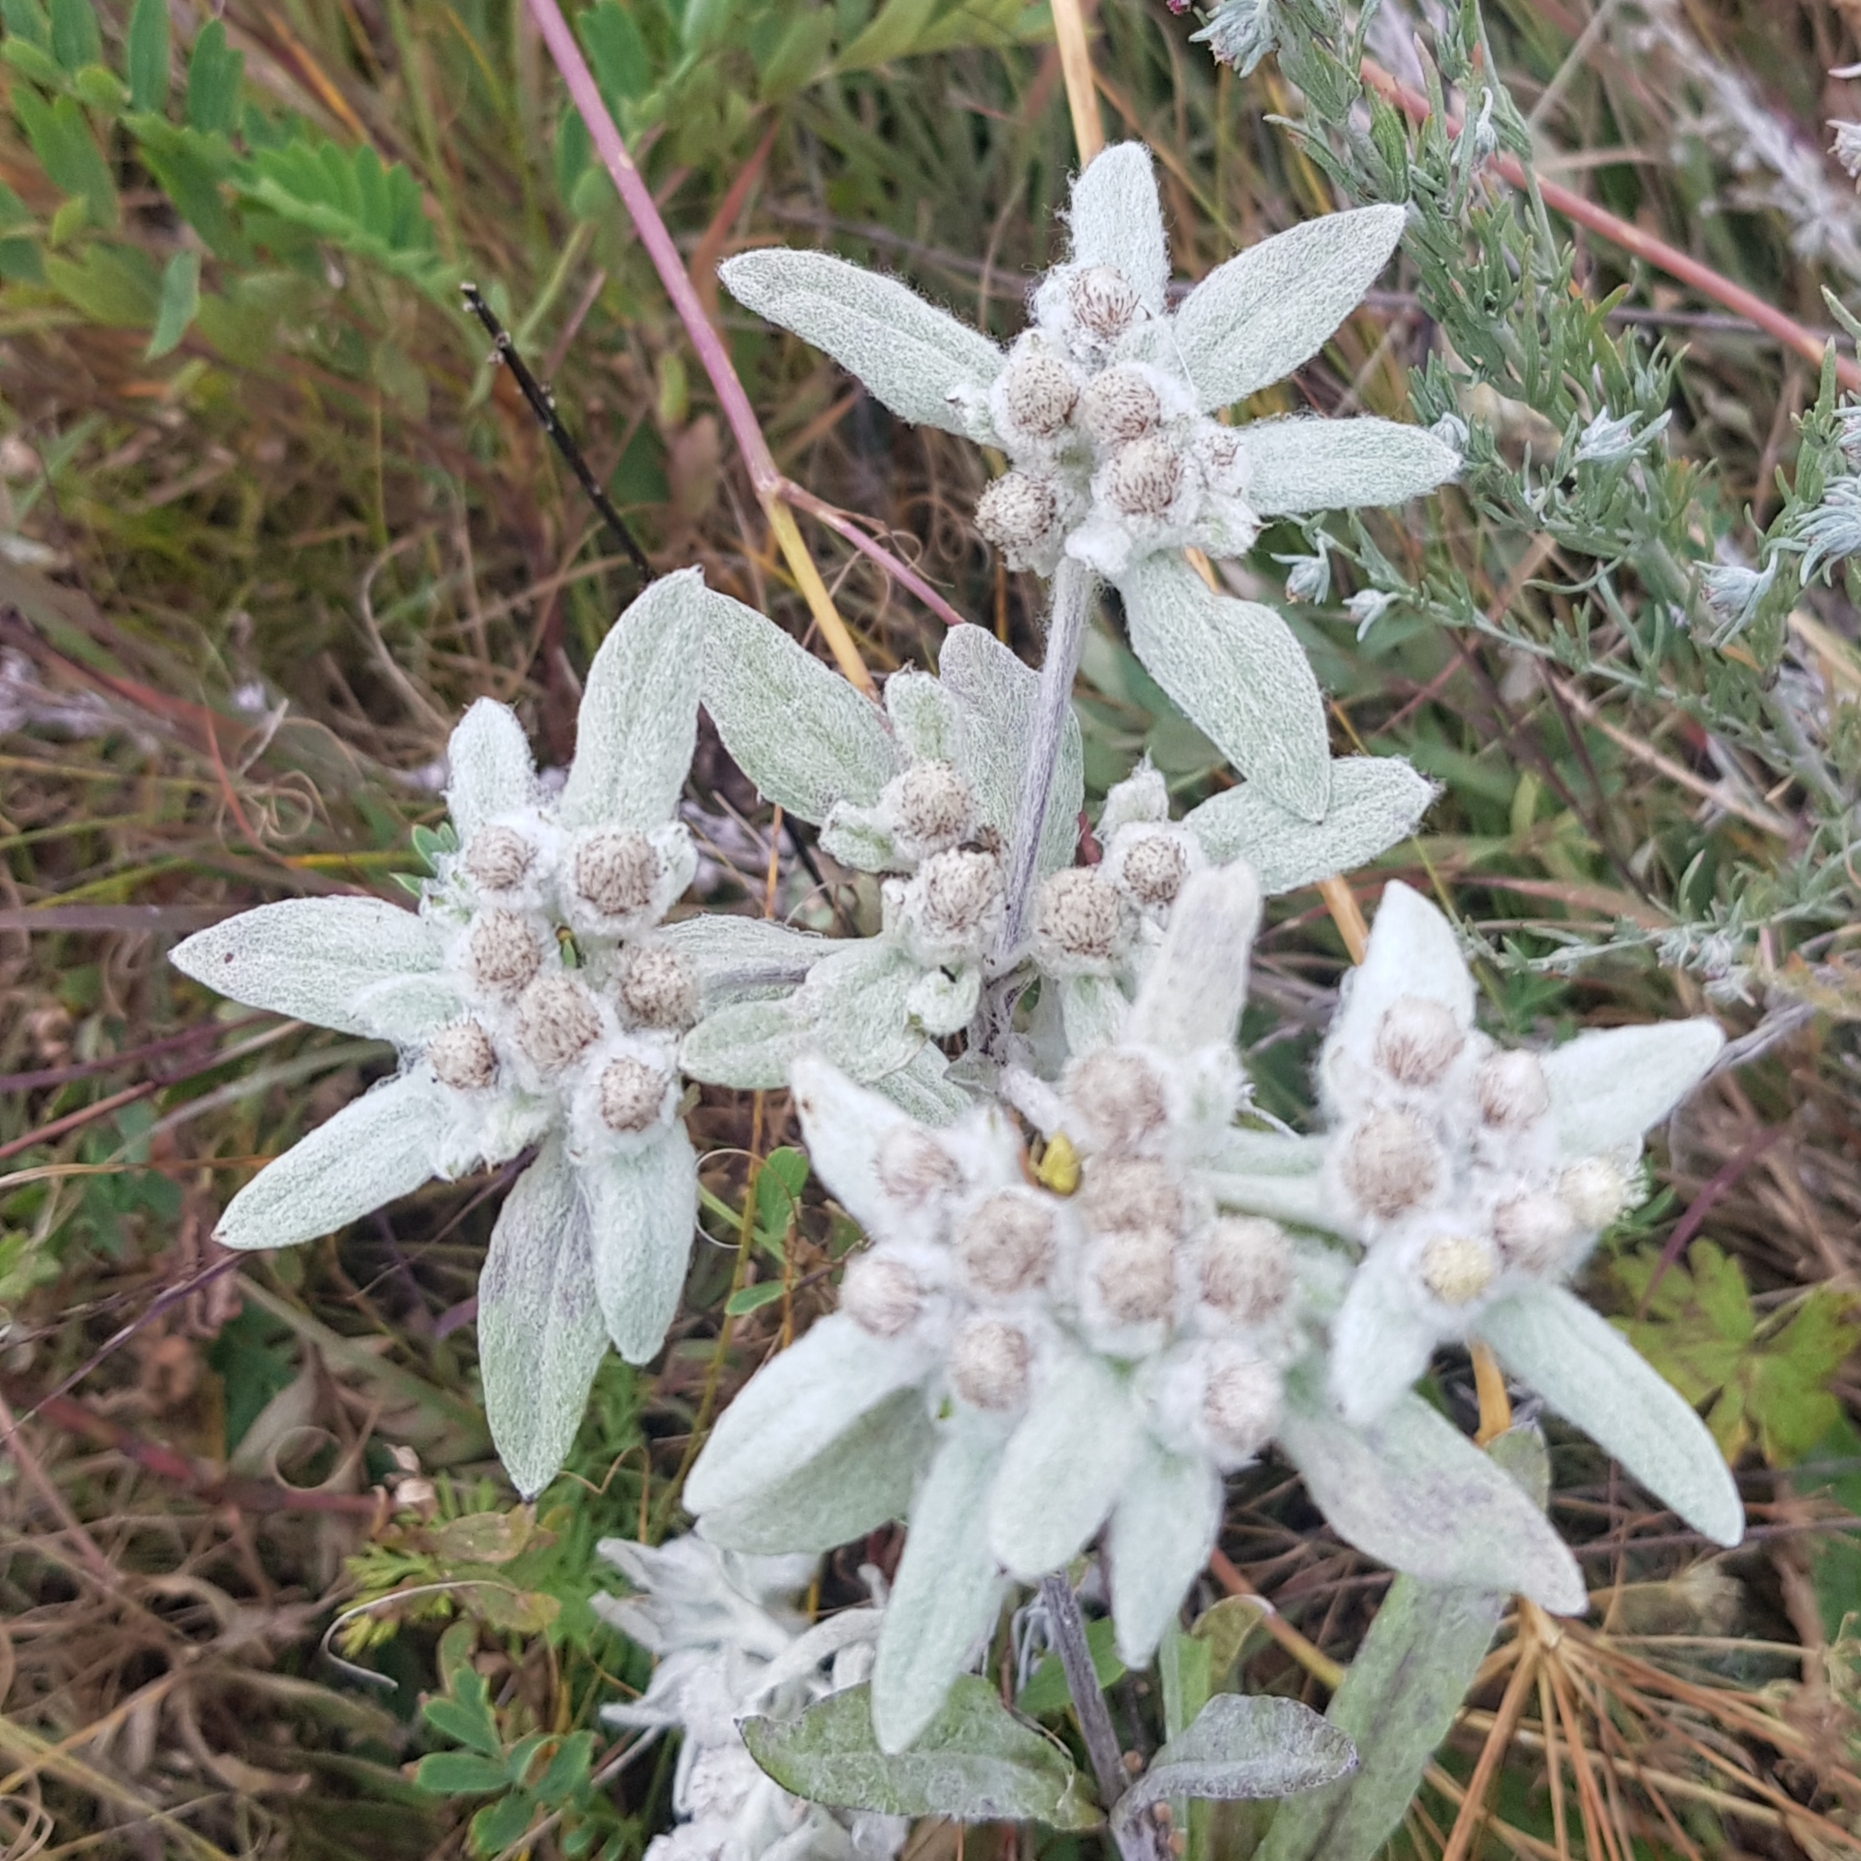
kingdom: Plantae
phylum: Tracheophyta
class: Magnoliopsida
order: Asterales
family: Asteraceae
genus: Leontopodium
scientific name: Leontopodium palibinianum
